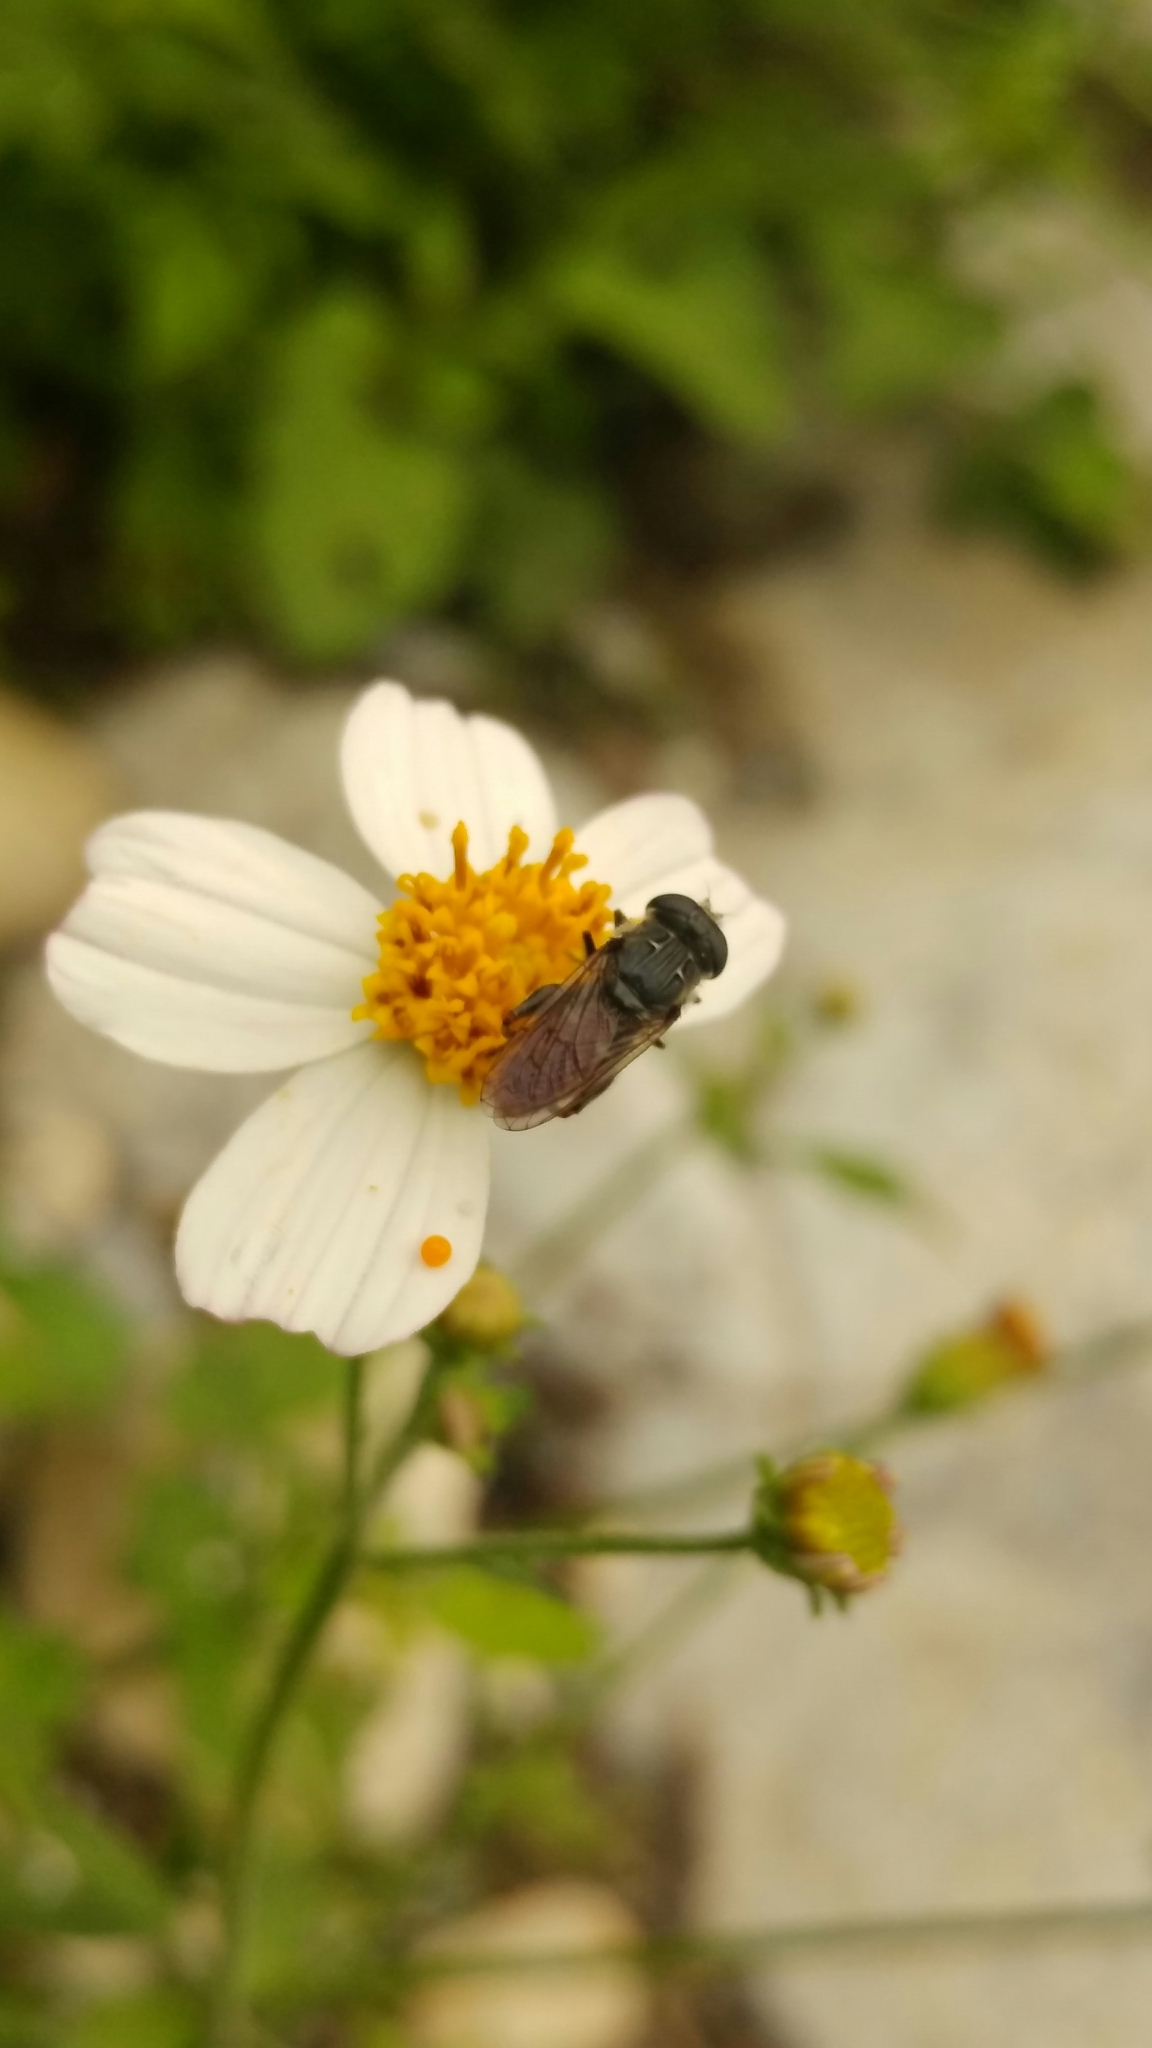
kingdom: Animalia
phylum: Arthropoda
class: Insecta
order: Diptera
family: Syrphidae
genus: Asemosyrphus
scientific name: Asemosyrphus
